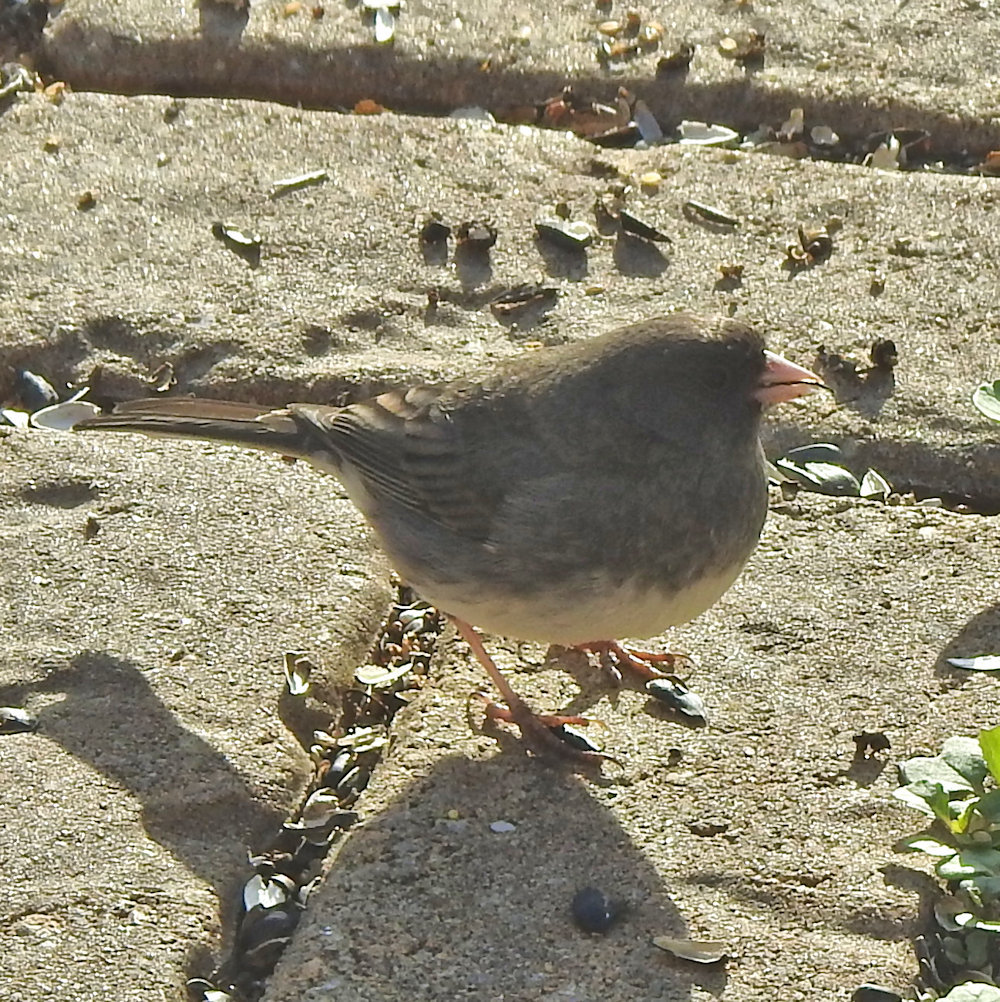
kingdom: Animalia
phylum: Chordata
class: Aves
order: Passeriformes
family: Passerellidae
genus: Junco
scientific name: Junco hyemalis
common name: Dark-eyed junco
